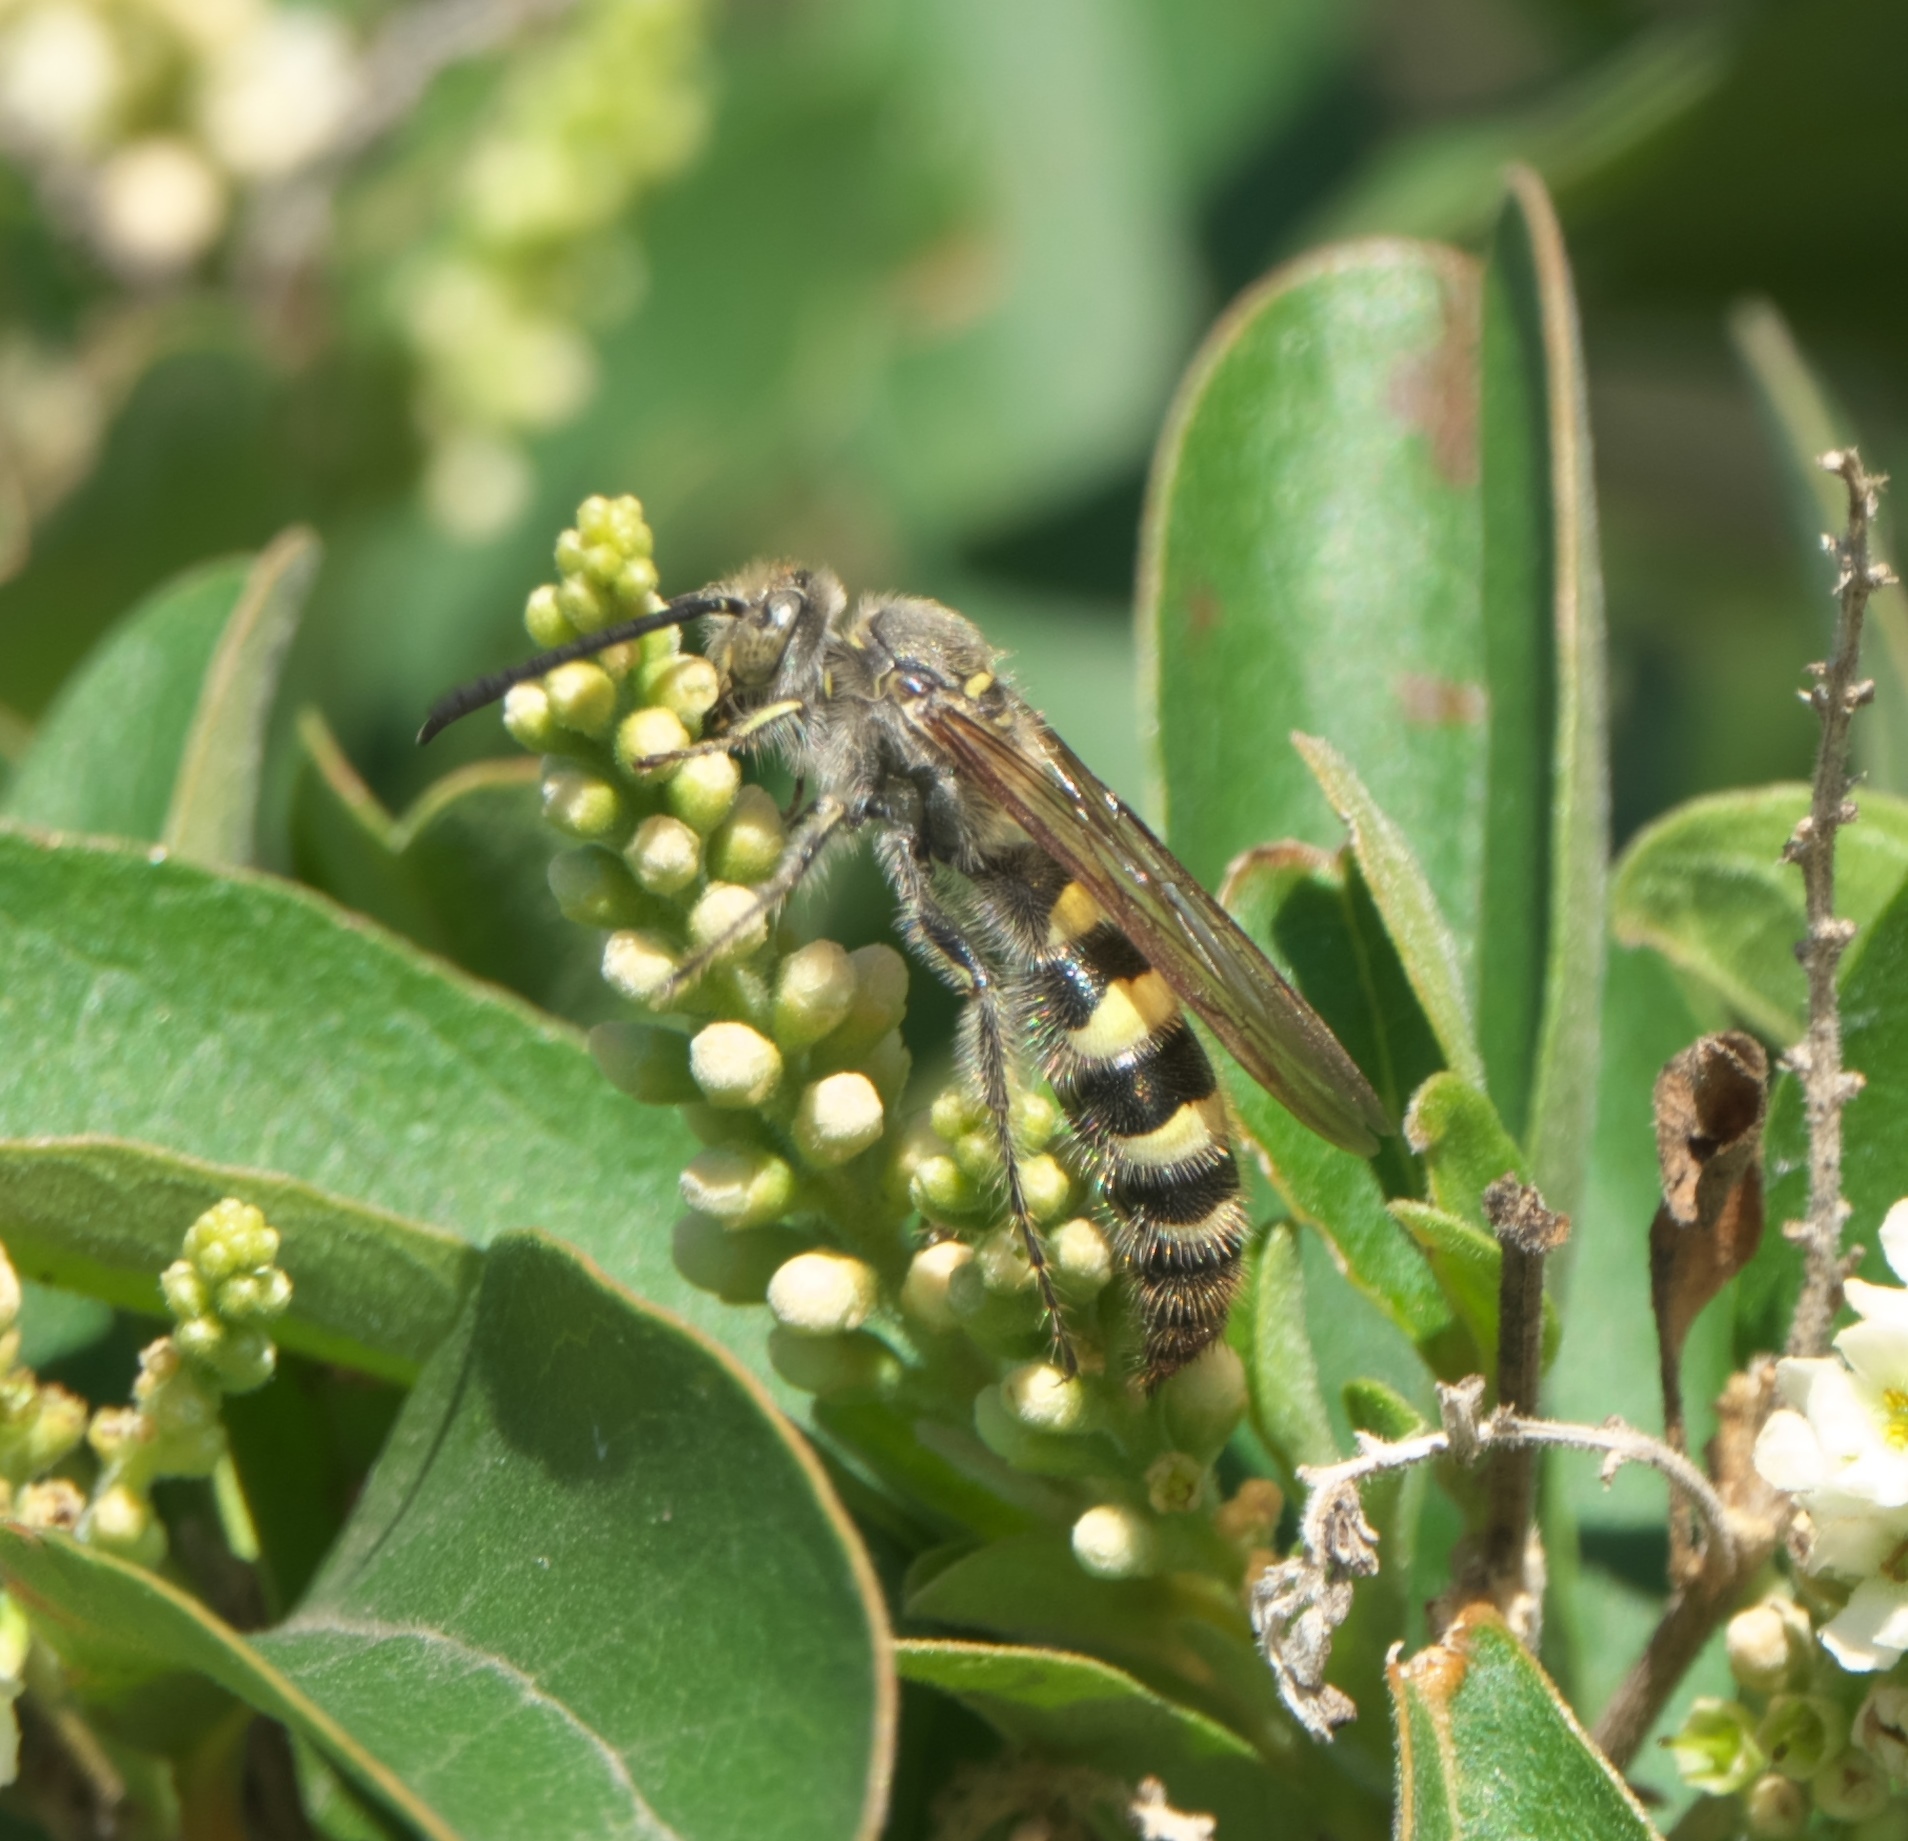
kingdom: Animalia
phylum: Arthropoda
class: Insecta
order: Hymenoptera
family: Scoliidae
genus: Dielis
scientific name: Dielis tolteca
